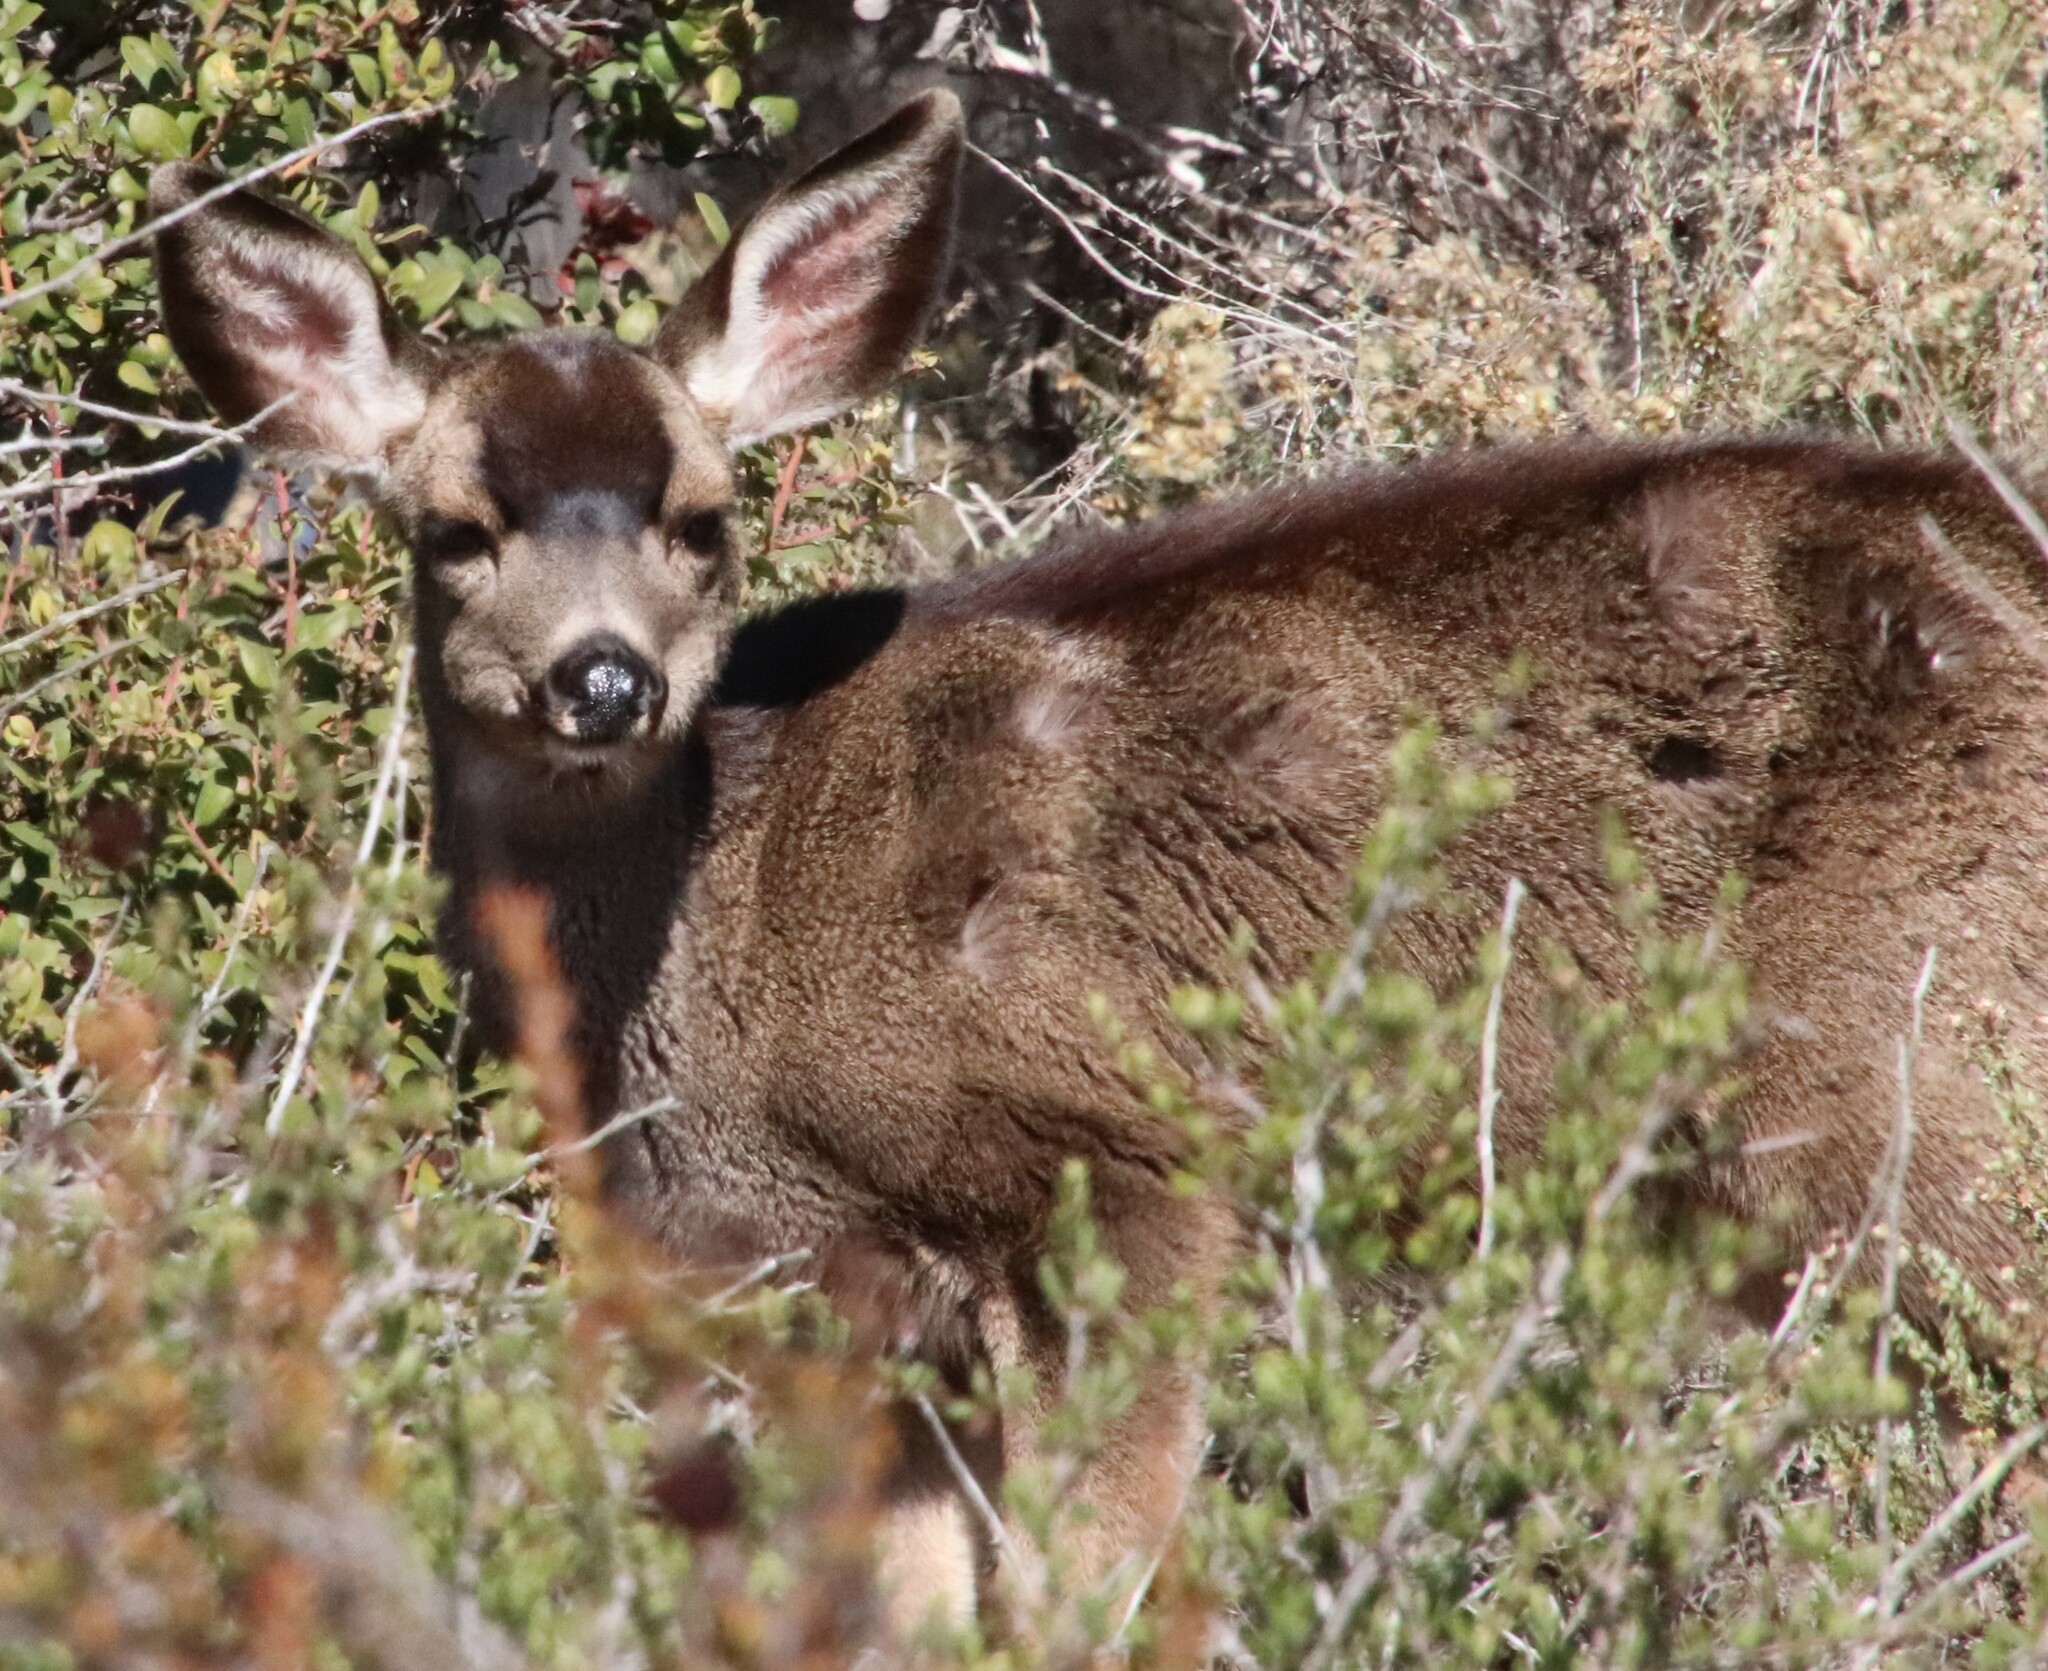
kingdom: Animalia
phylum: Chordata
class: Mammalia
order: Artiodactyla
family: Cervidae
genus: Odocoileus
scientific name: Odocoileus hemionus
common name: Mule deer
